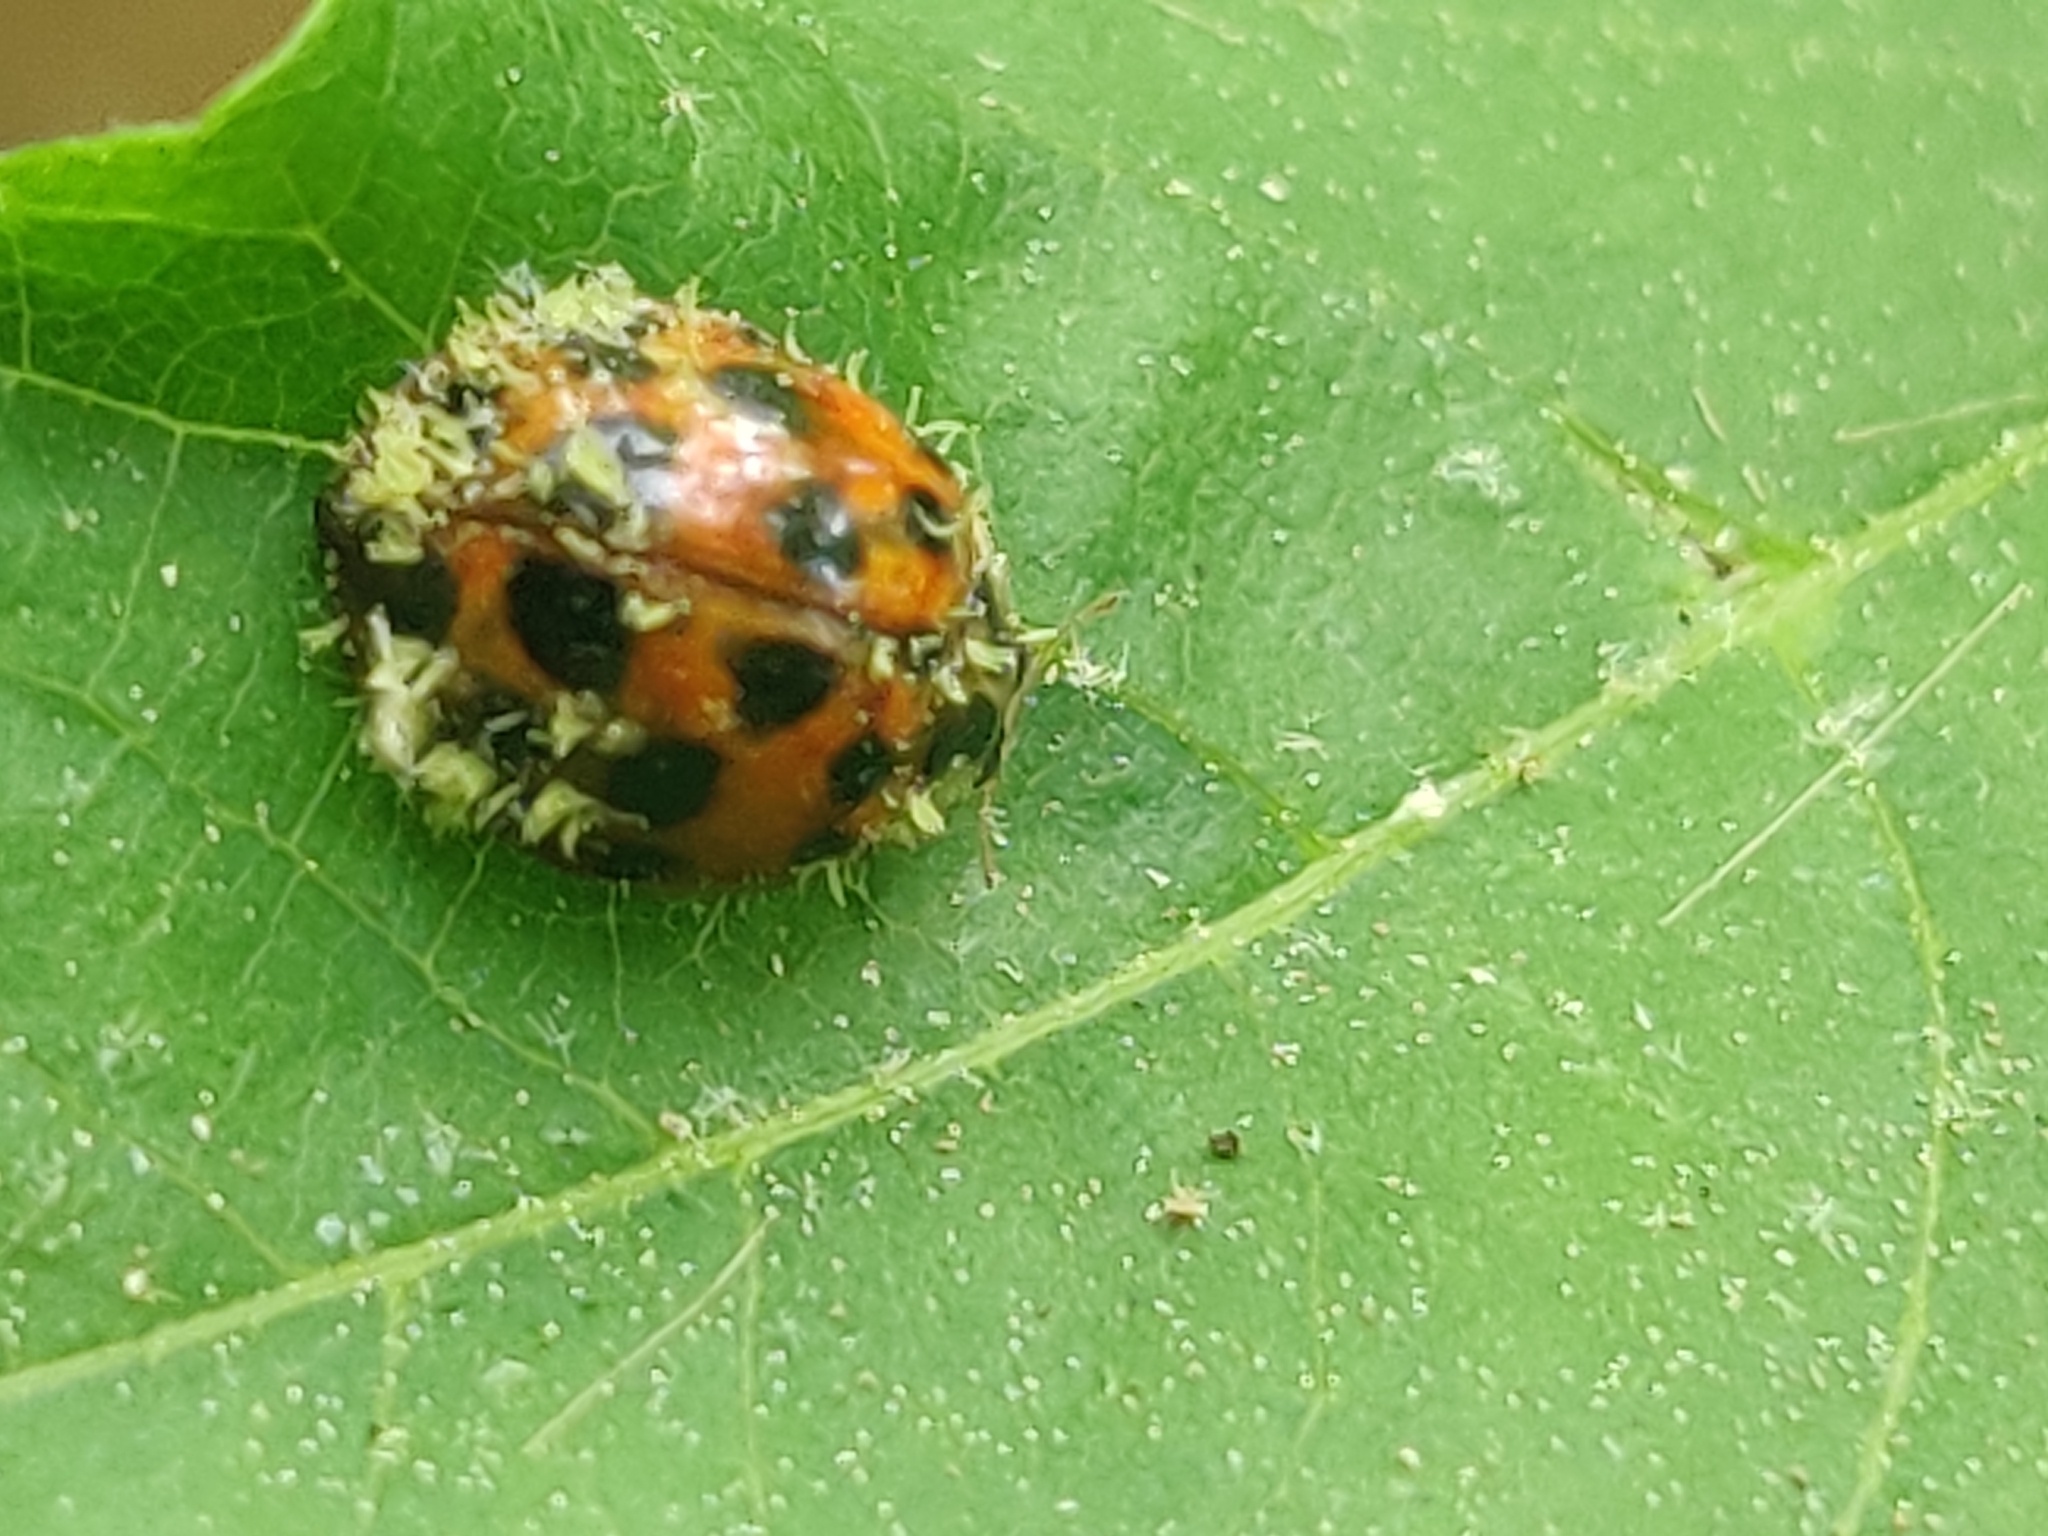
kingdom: Fungi
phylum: Ascomycota
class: Laboulbeniomycetes
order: Laboulbeniales
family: Laboulbeniaceae
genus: Hesperomyces
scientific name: Hesperomyces harmoniae
